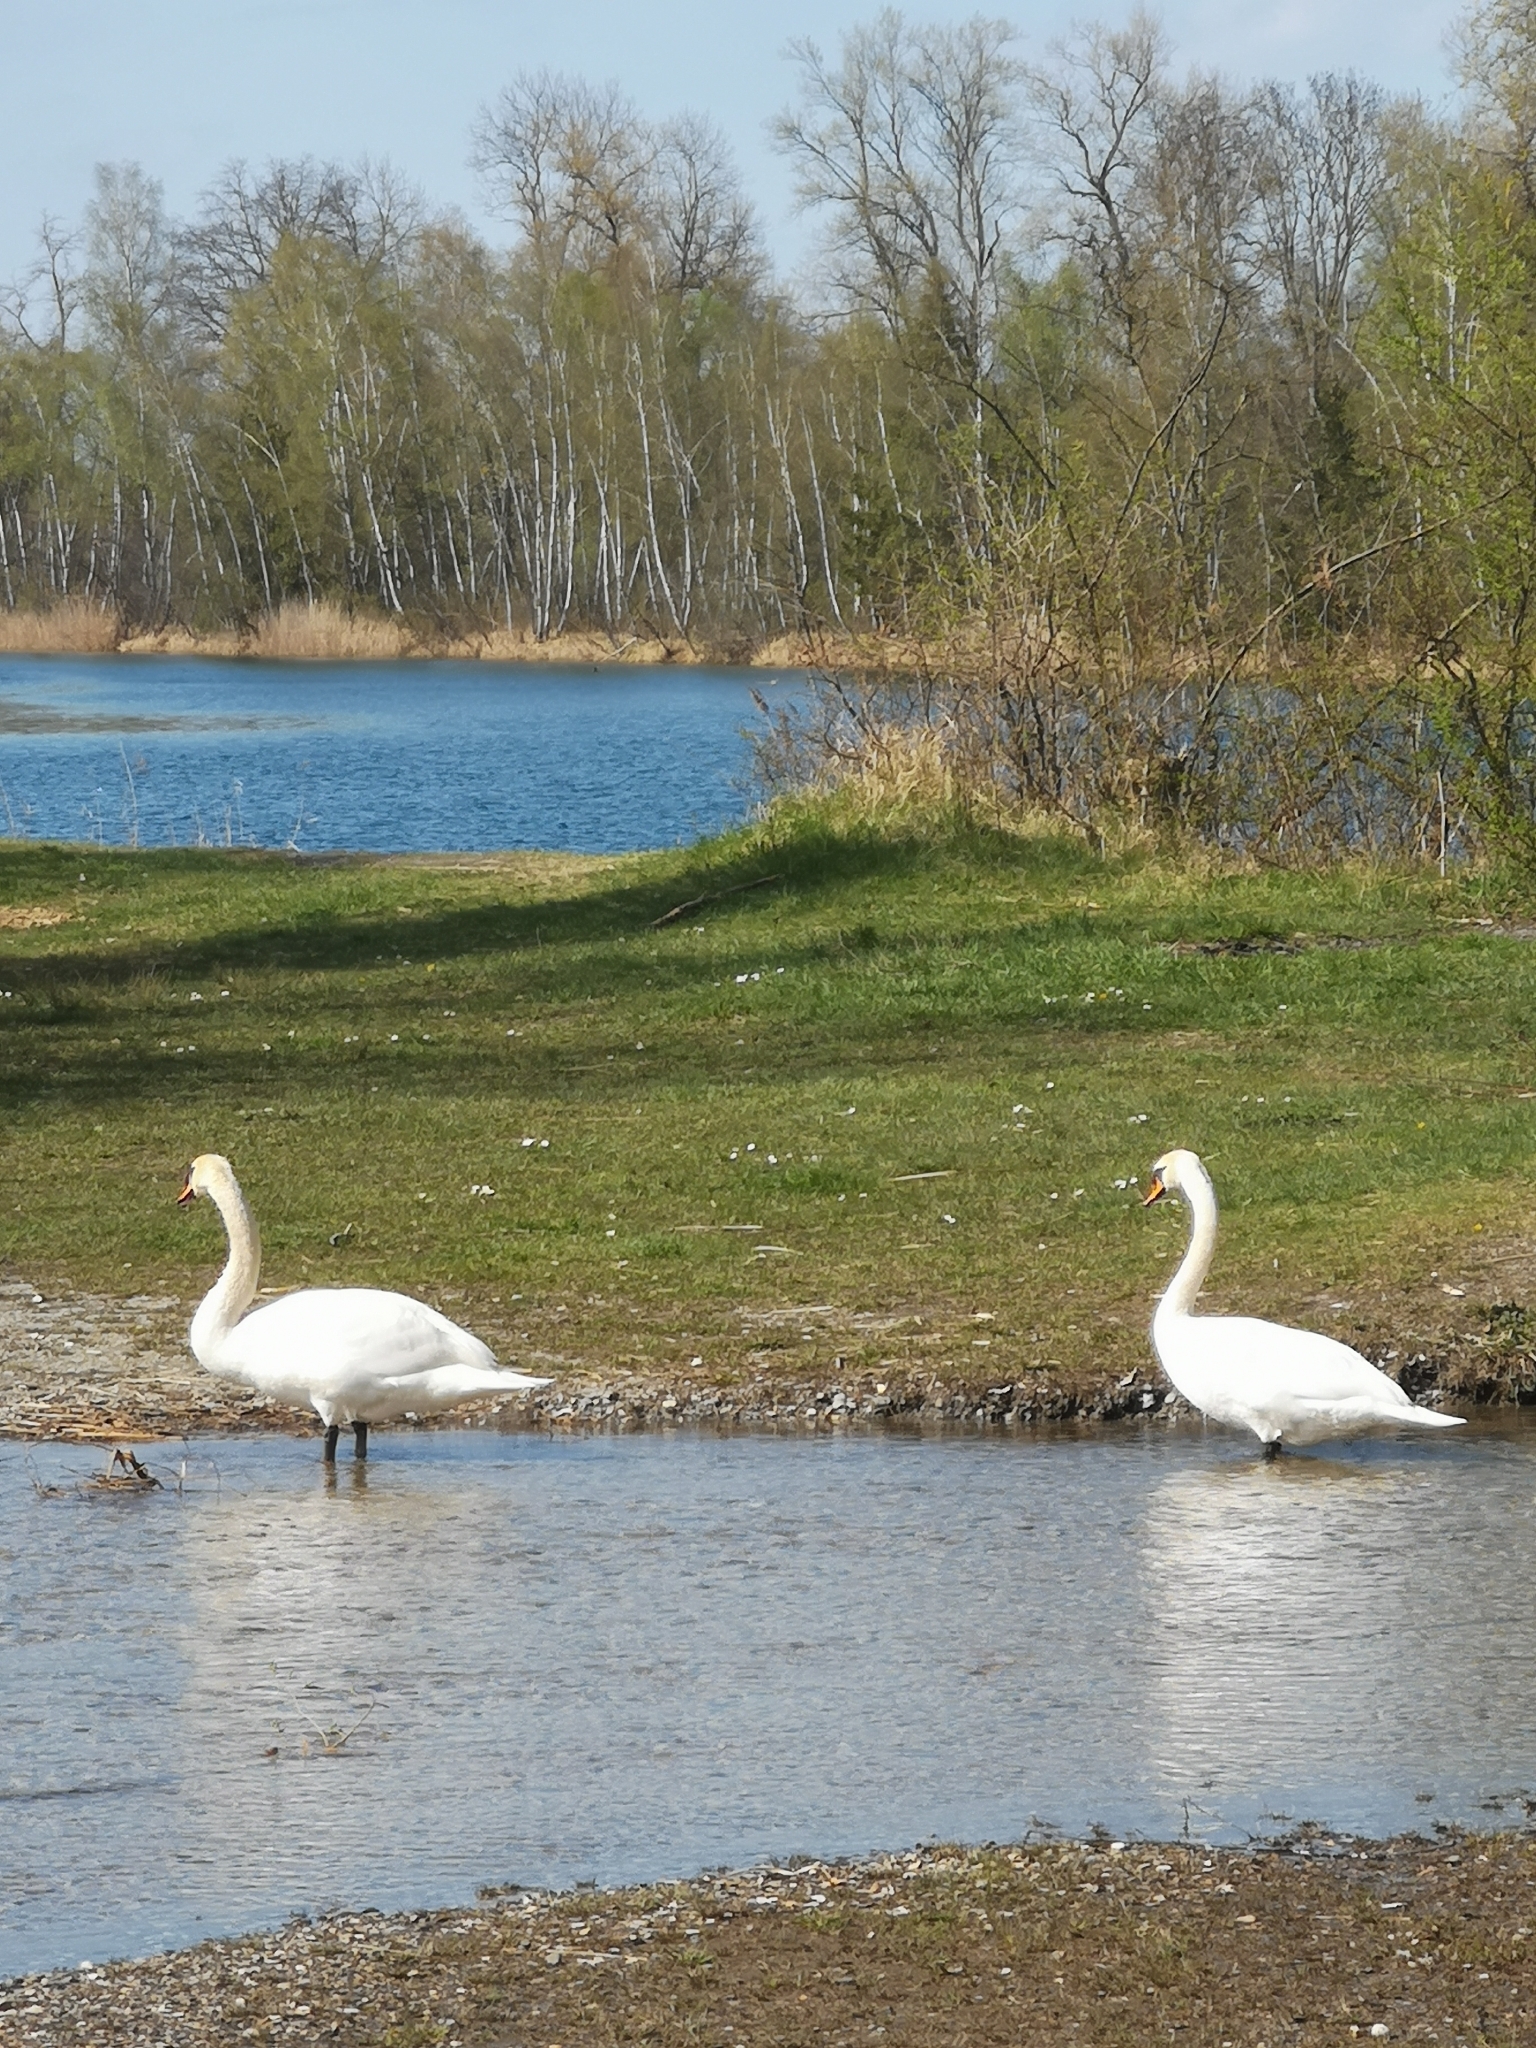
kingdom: Animalia
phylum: Chordata
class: Aves
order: Anseriformes
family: Anatidae
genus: Cygnus
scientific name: Cygnus olor
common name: Mute swan
